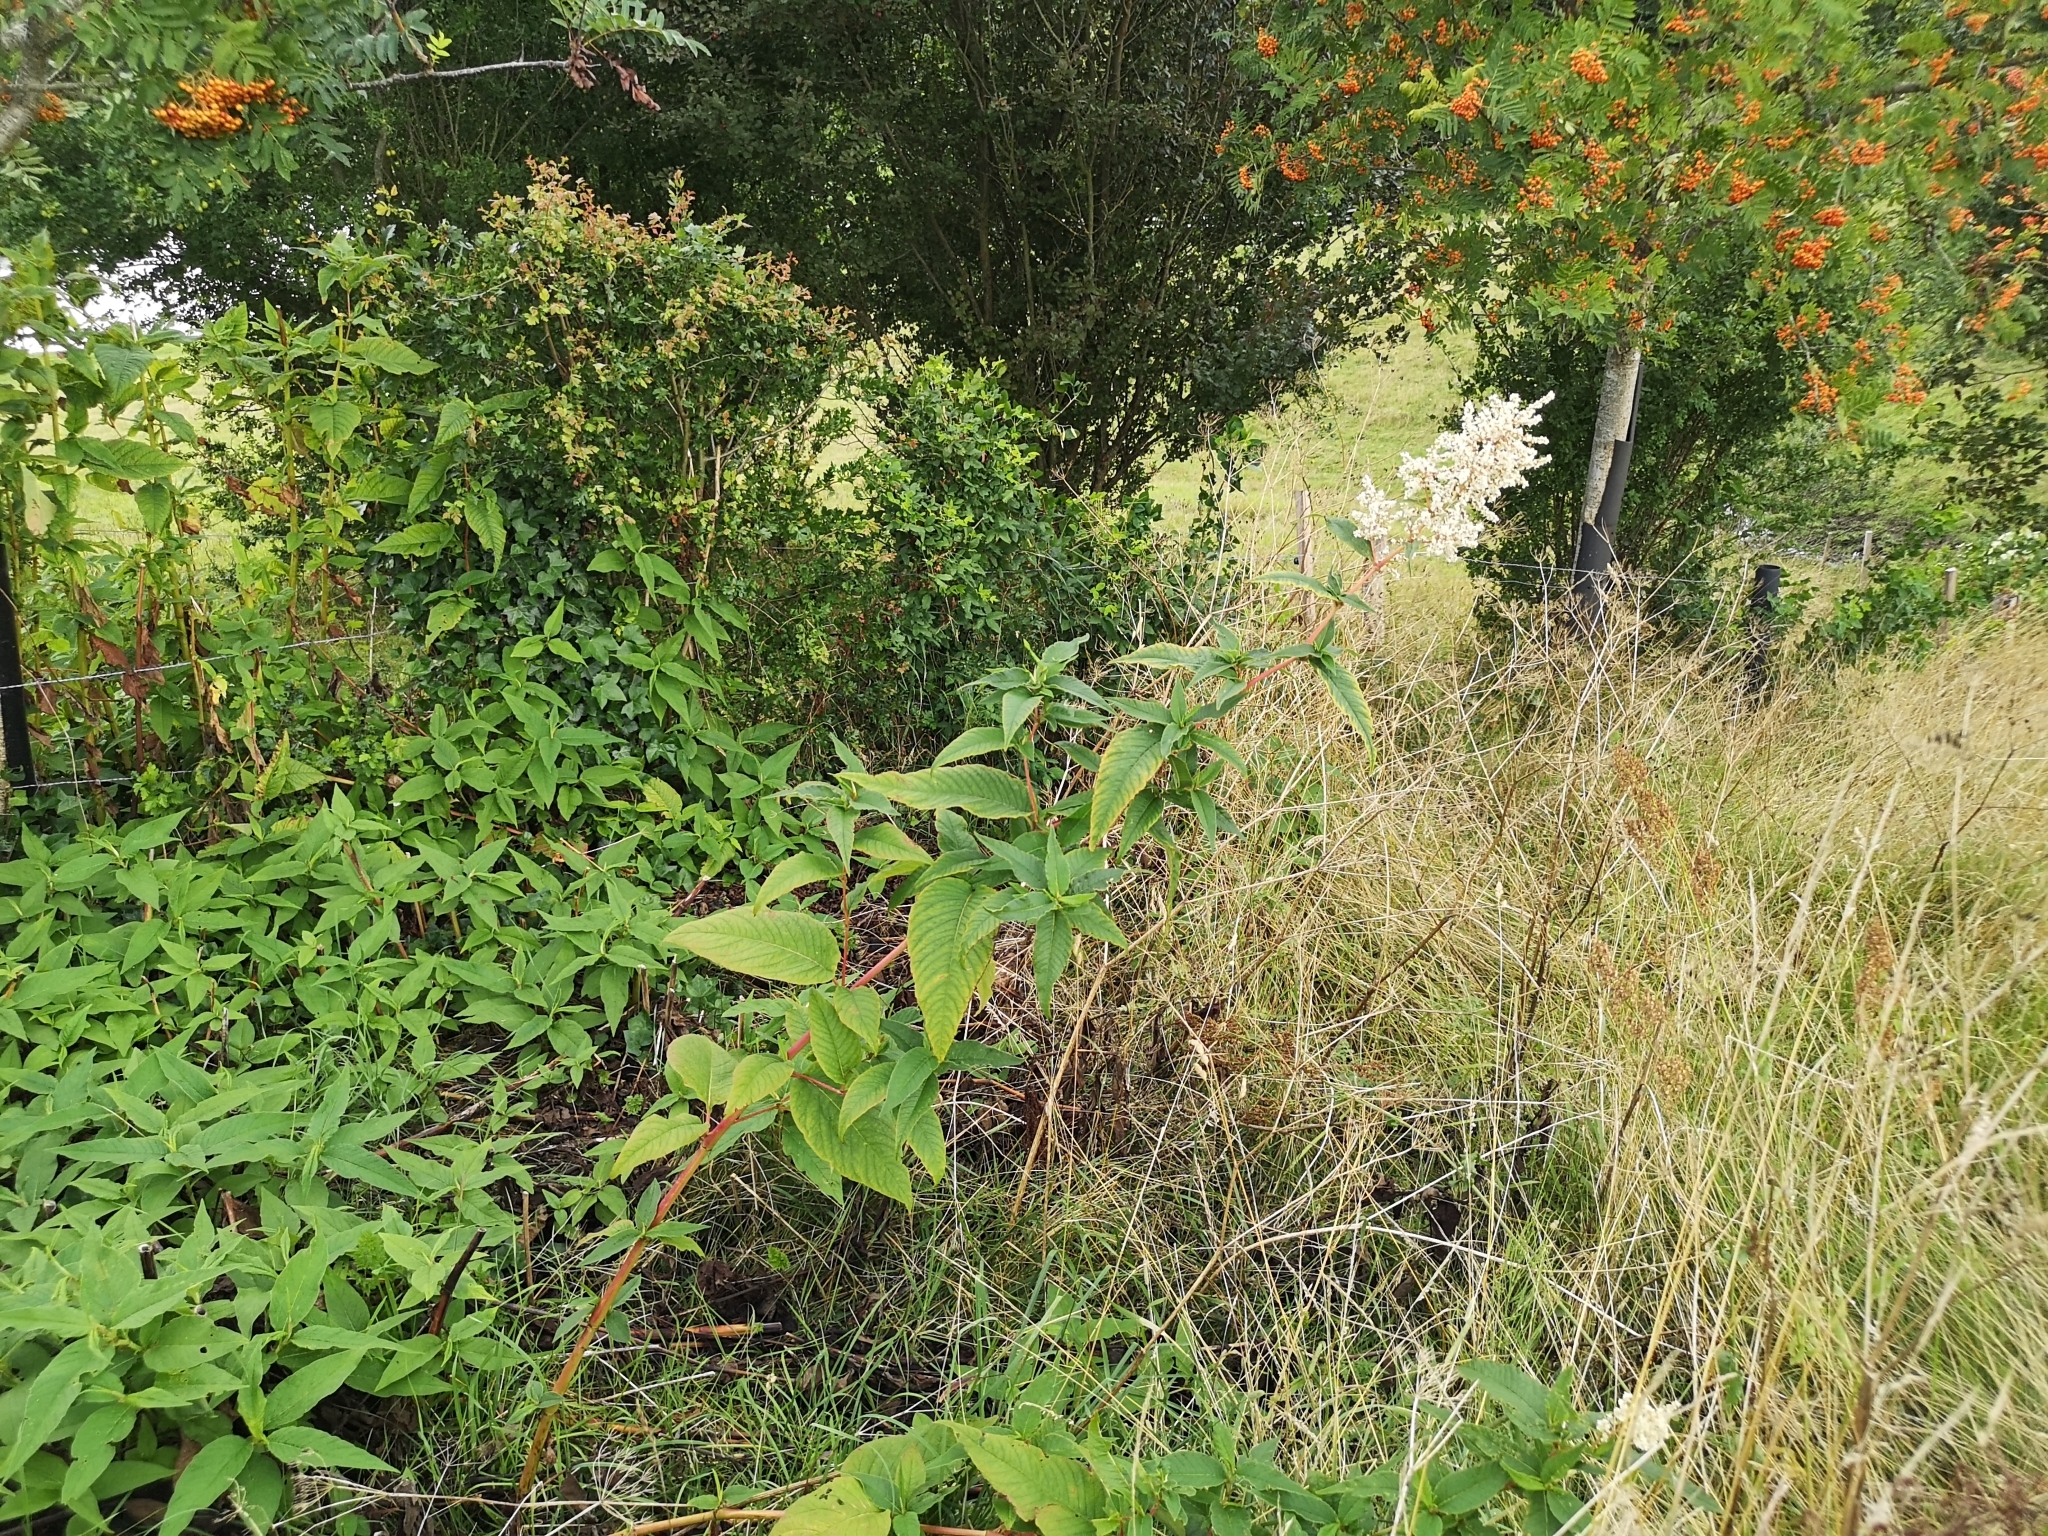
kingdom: Plantae
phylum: Tracheophyta
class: Magnoliopsida
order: Caryophyllales
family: Polygonaceae
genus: Koenigia
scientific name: Koenigia polystachya
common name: Himalayan knotweed
